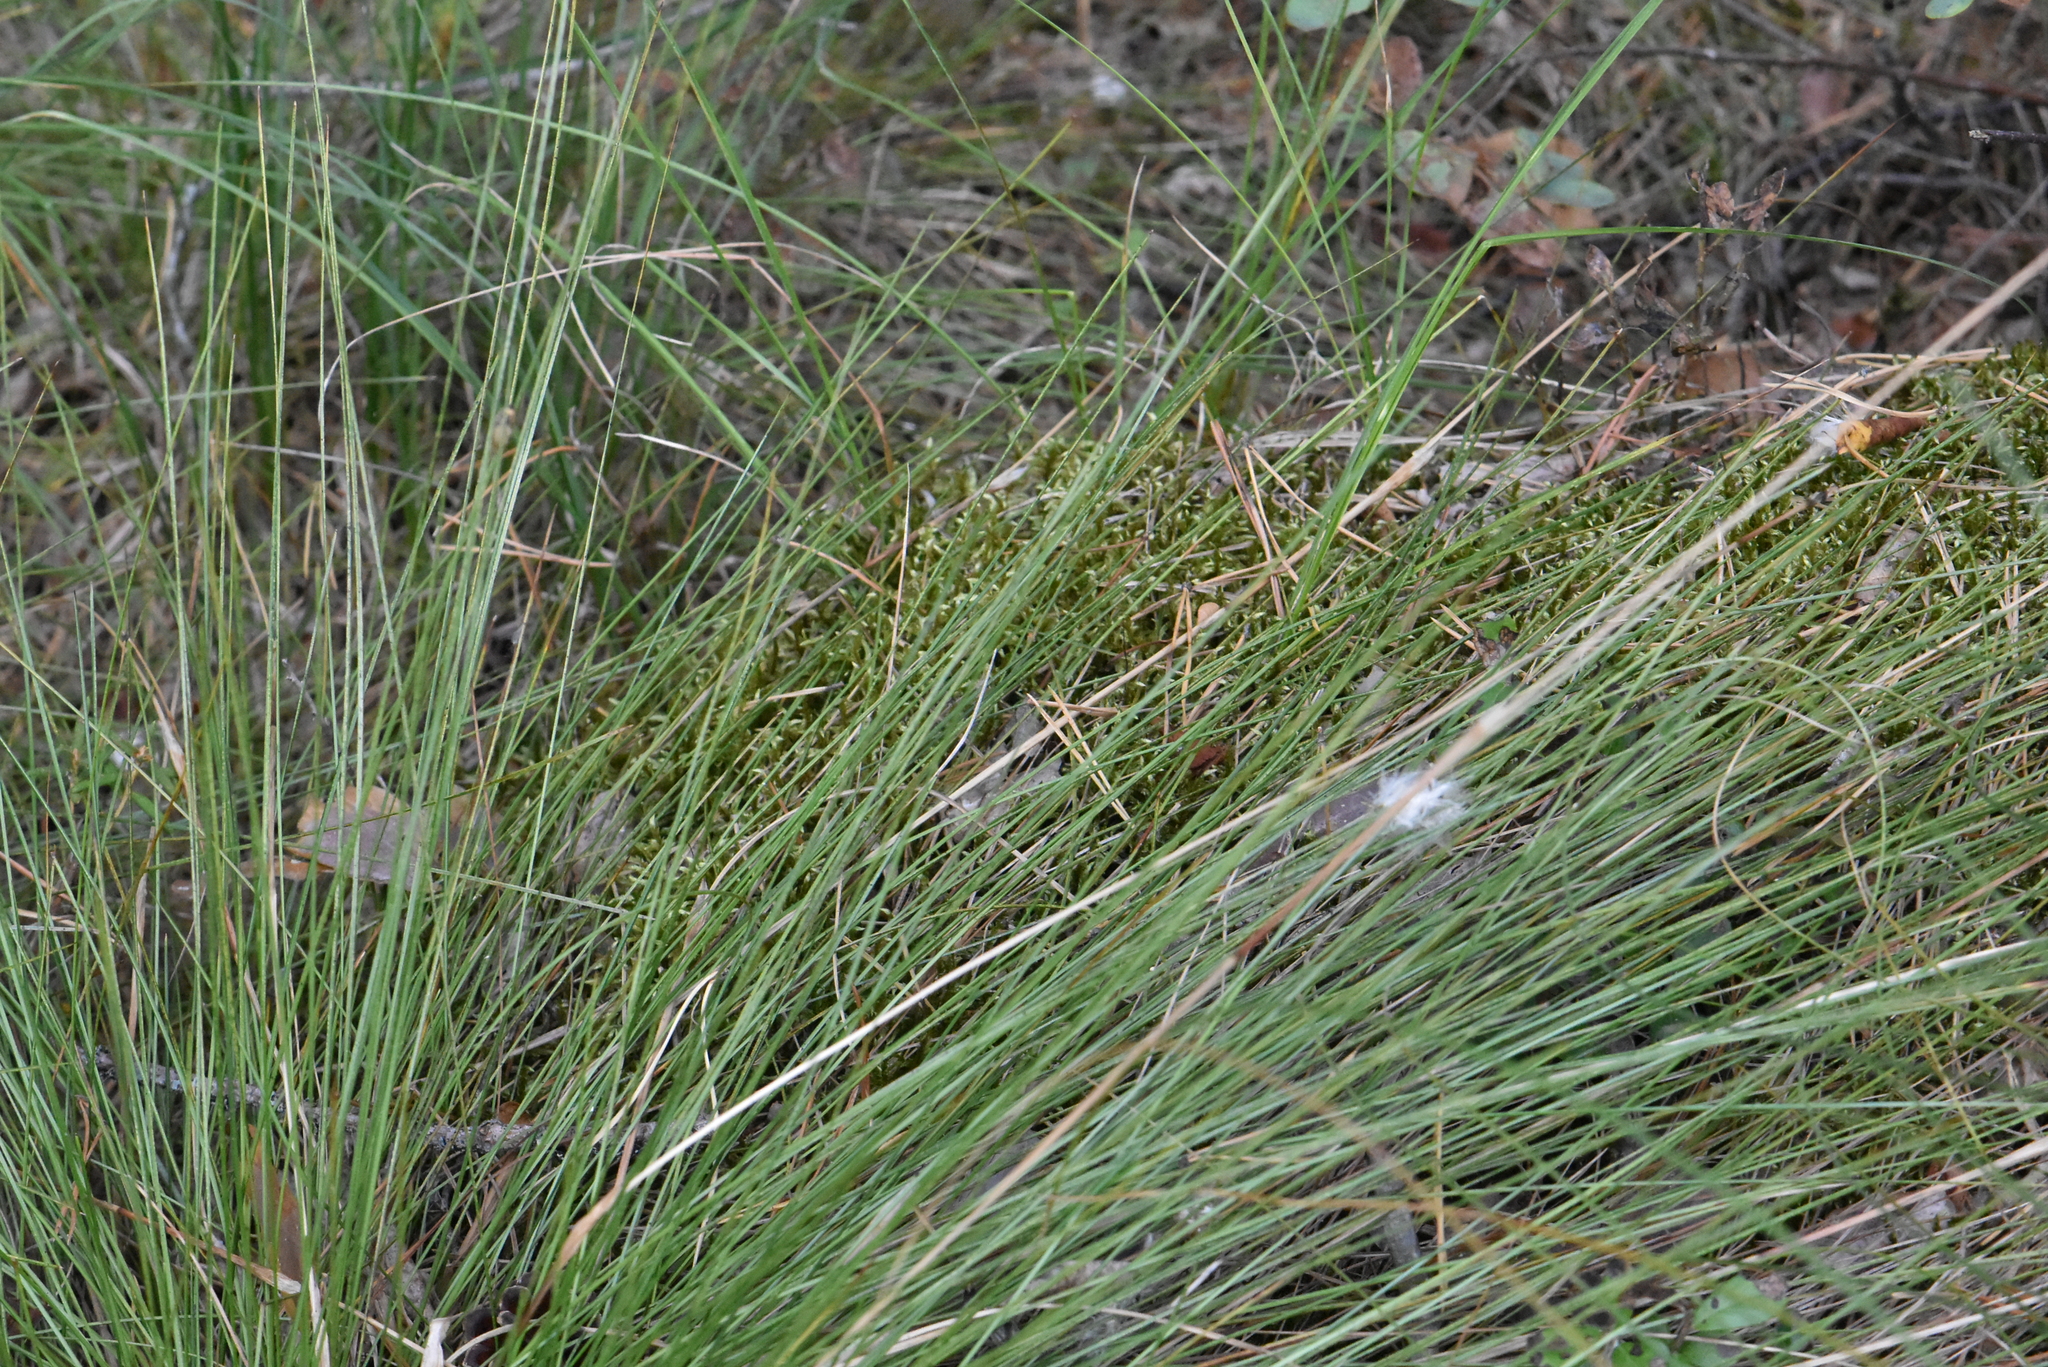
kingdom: Plantae
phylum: Tracheophyta
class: Liliopsida
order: Poales
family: Cyperaceae
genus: Eriophorum
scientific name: Eriophorum vaginatum
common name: Hare's-tail cottongrass
